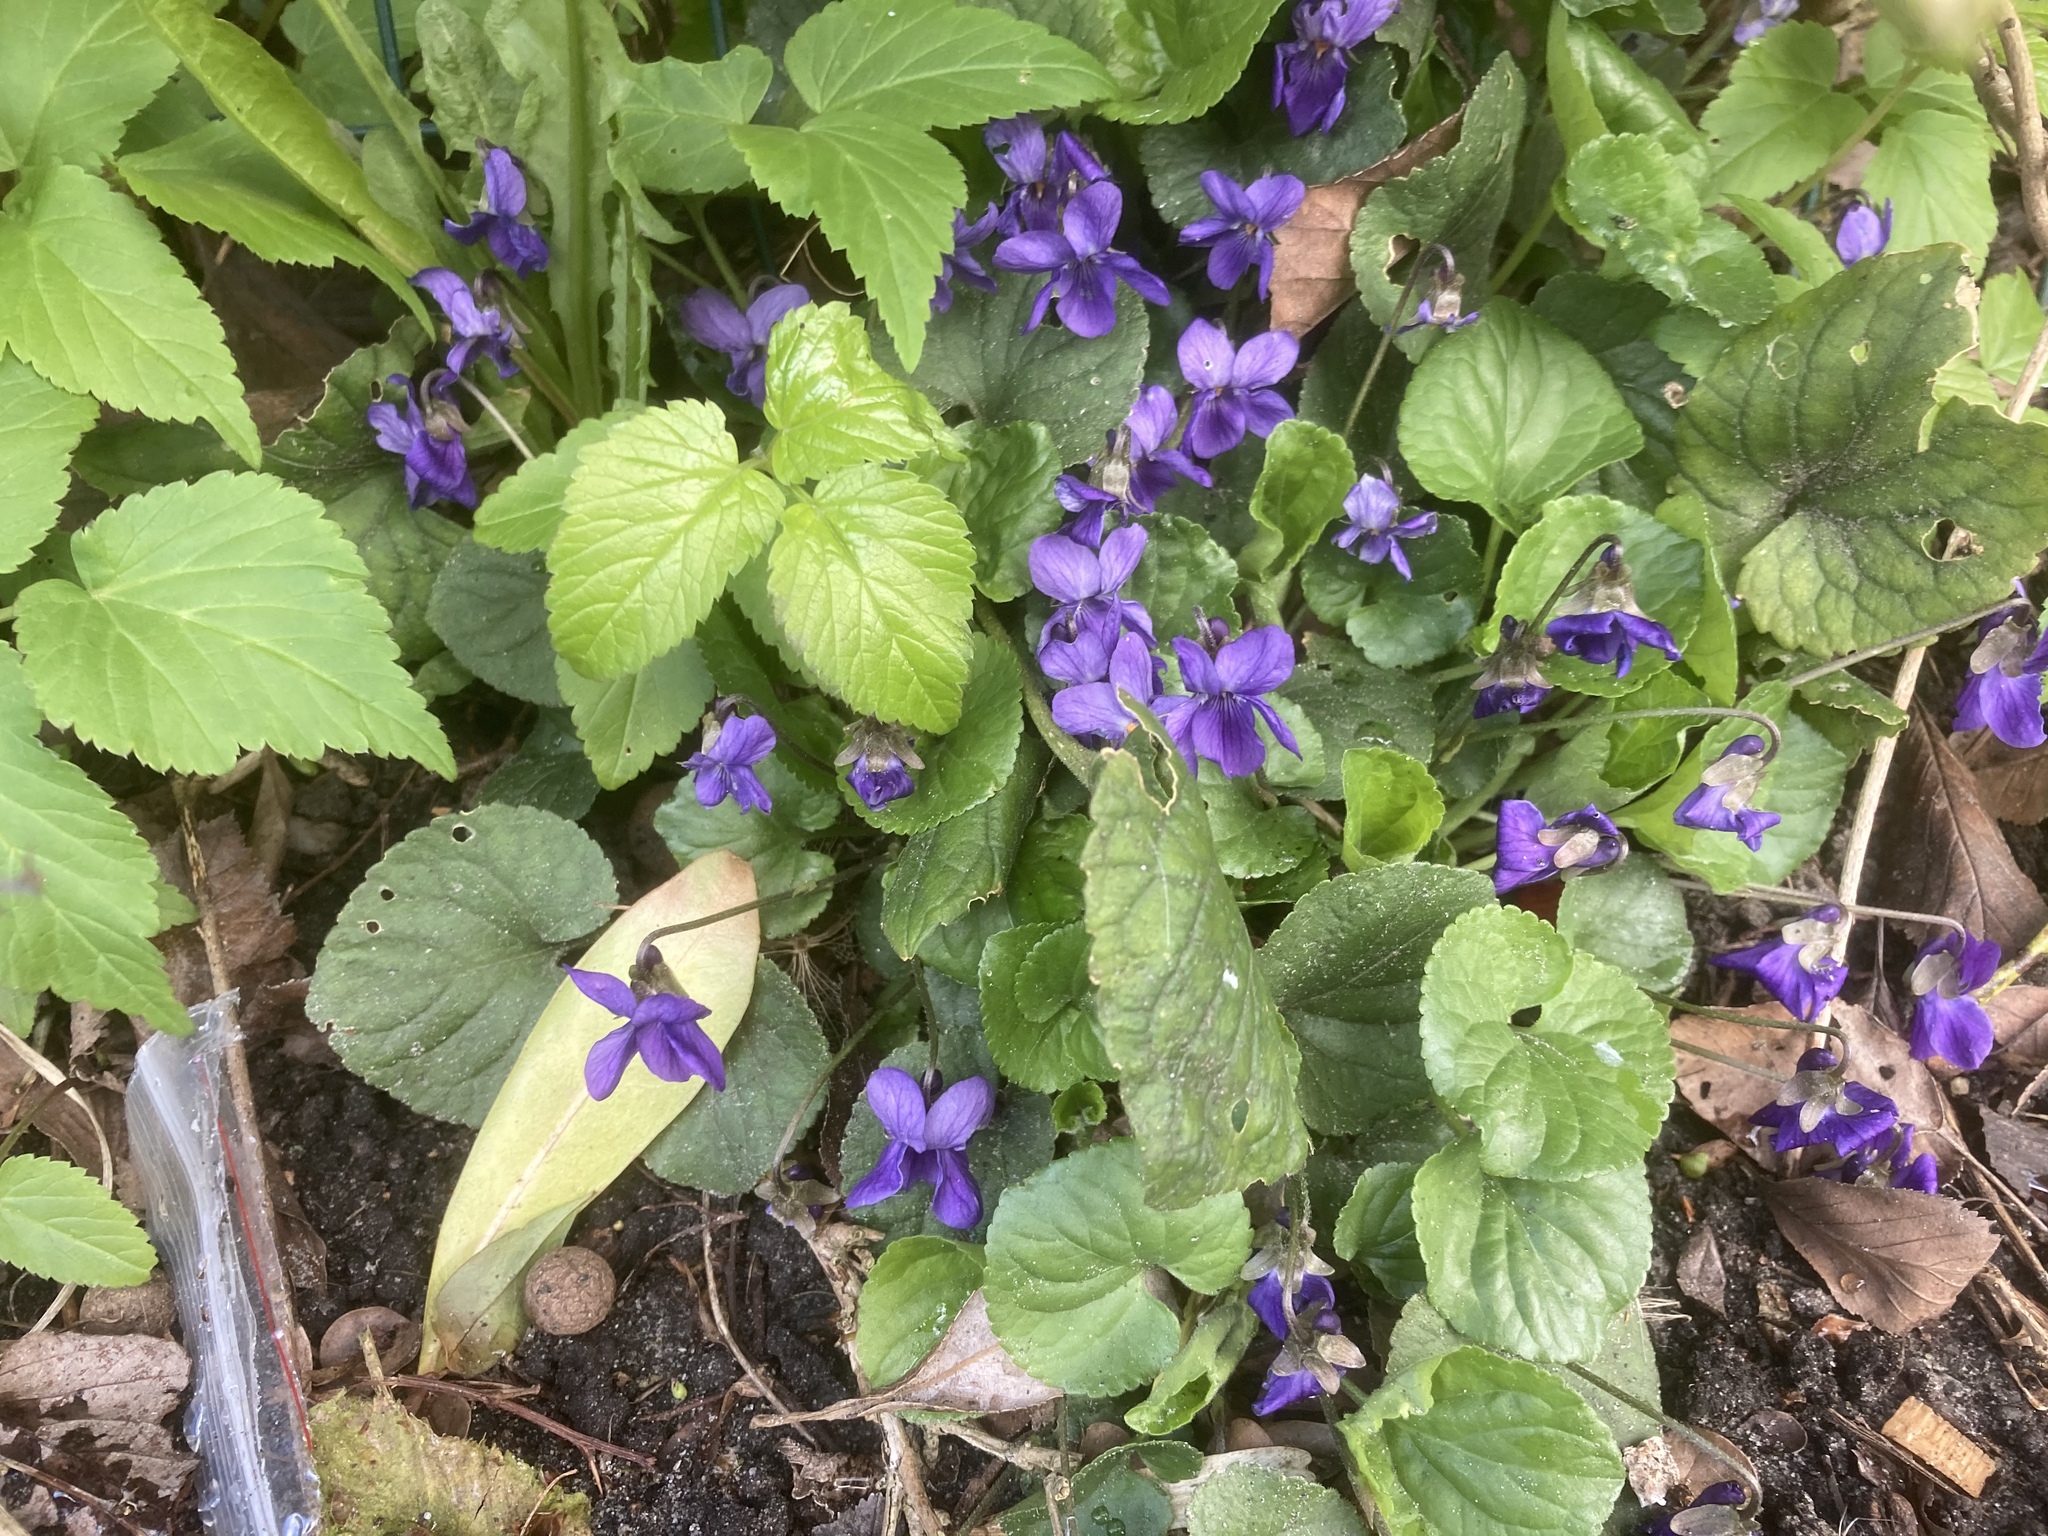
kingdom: Plantae
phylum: Tracheophyta
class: Magnoliopsida
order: Malpighiales
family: Violaceae
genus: Viola
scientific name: Viola odorata
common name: Sweet violet
